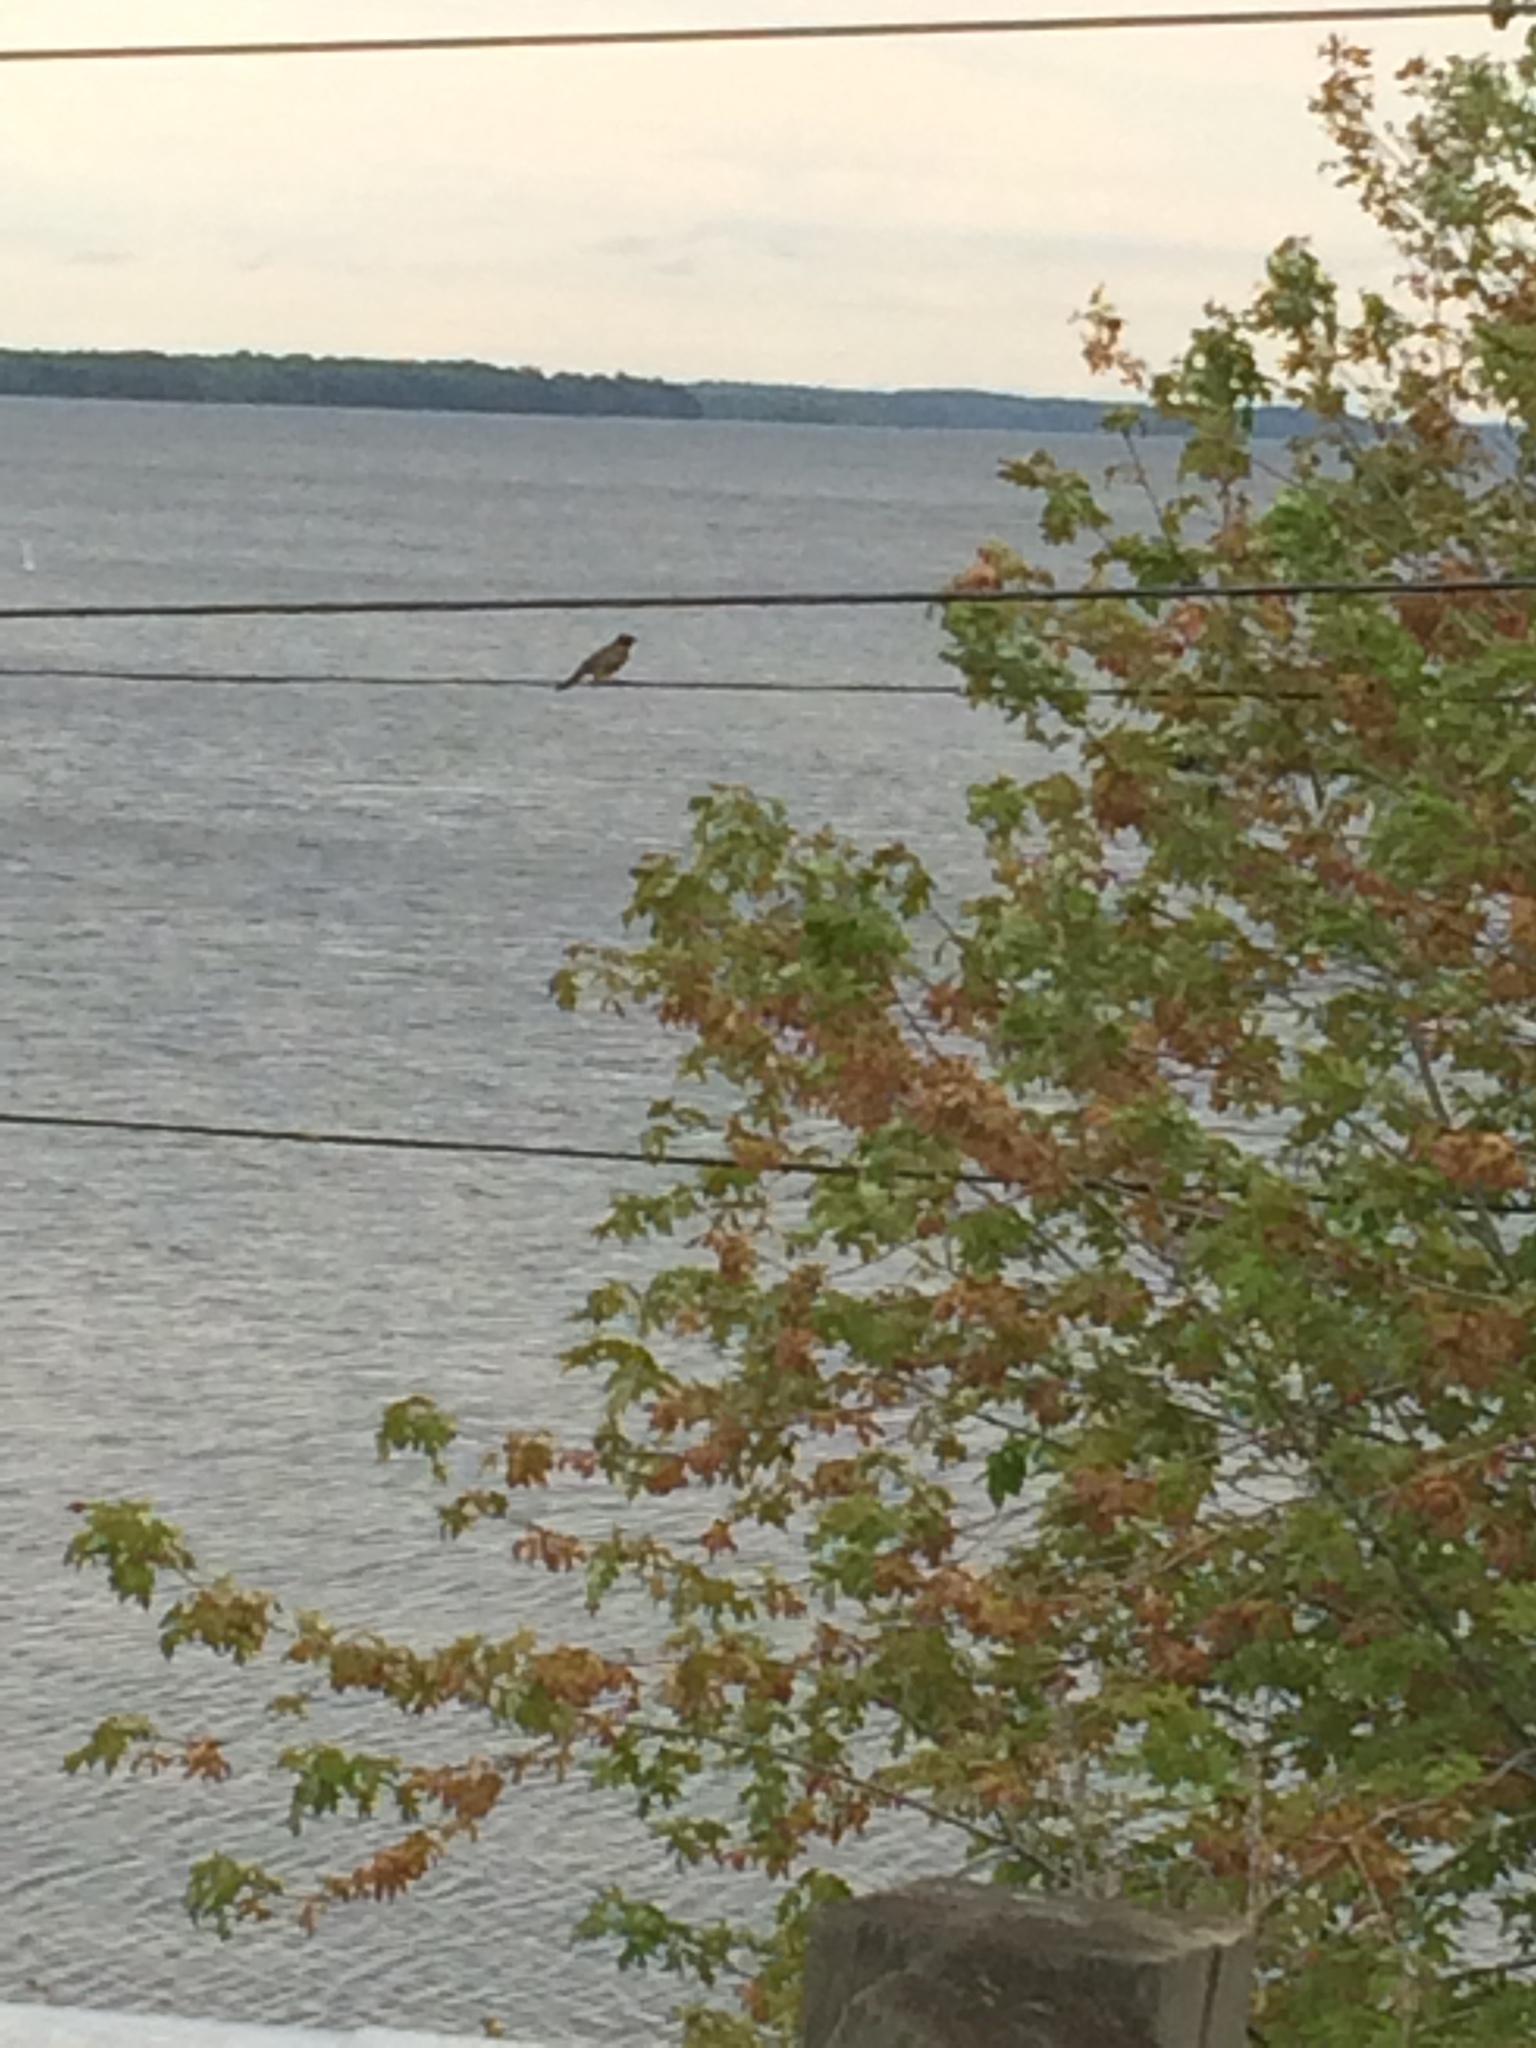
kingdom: Animalia
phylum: Chordata
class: Aves
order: Passeriformes
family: Turdidae
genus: Turdus
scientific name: Turdus migratorius
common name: American robin
